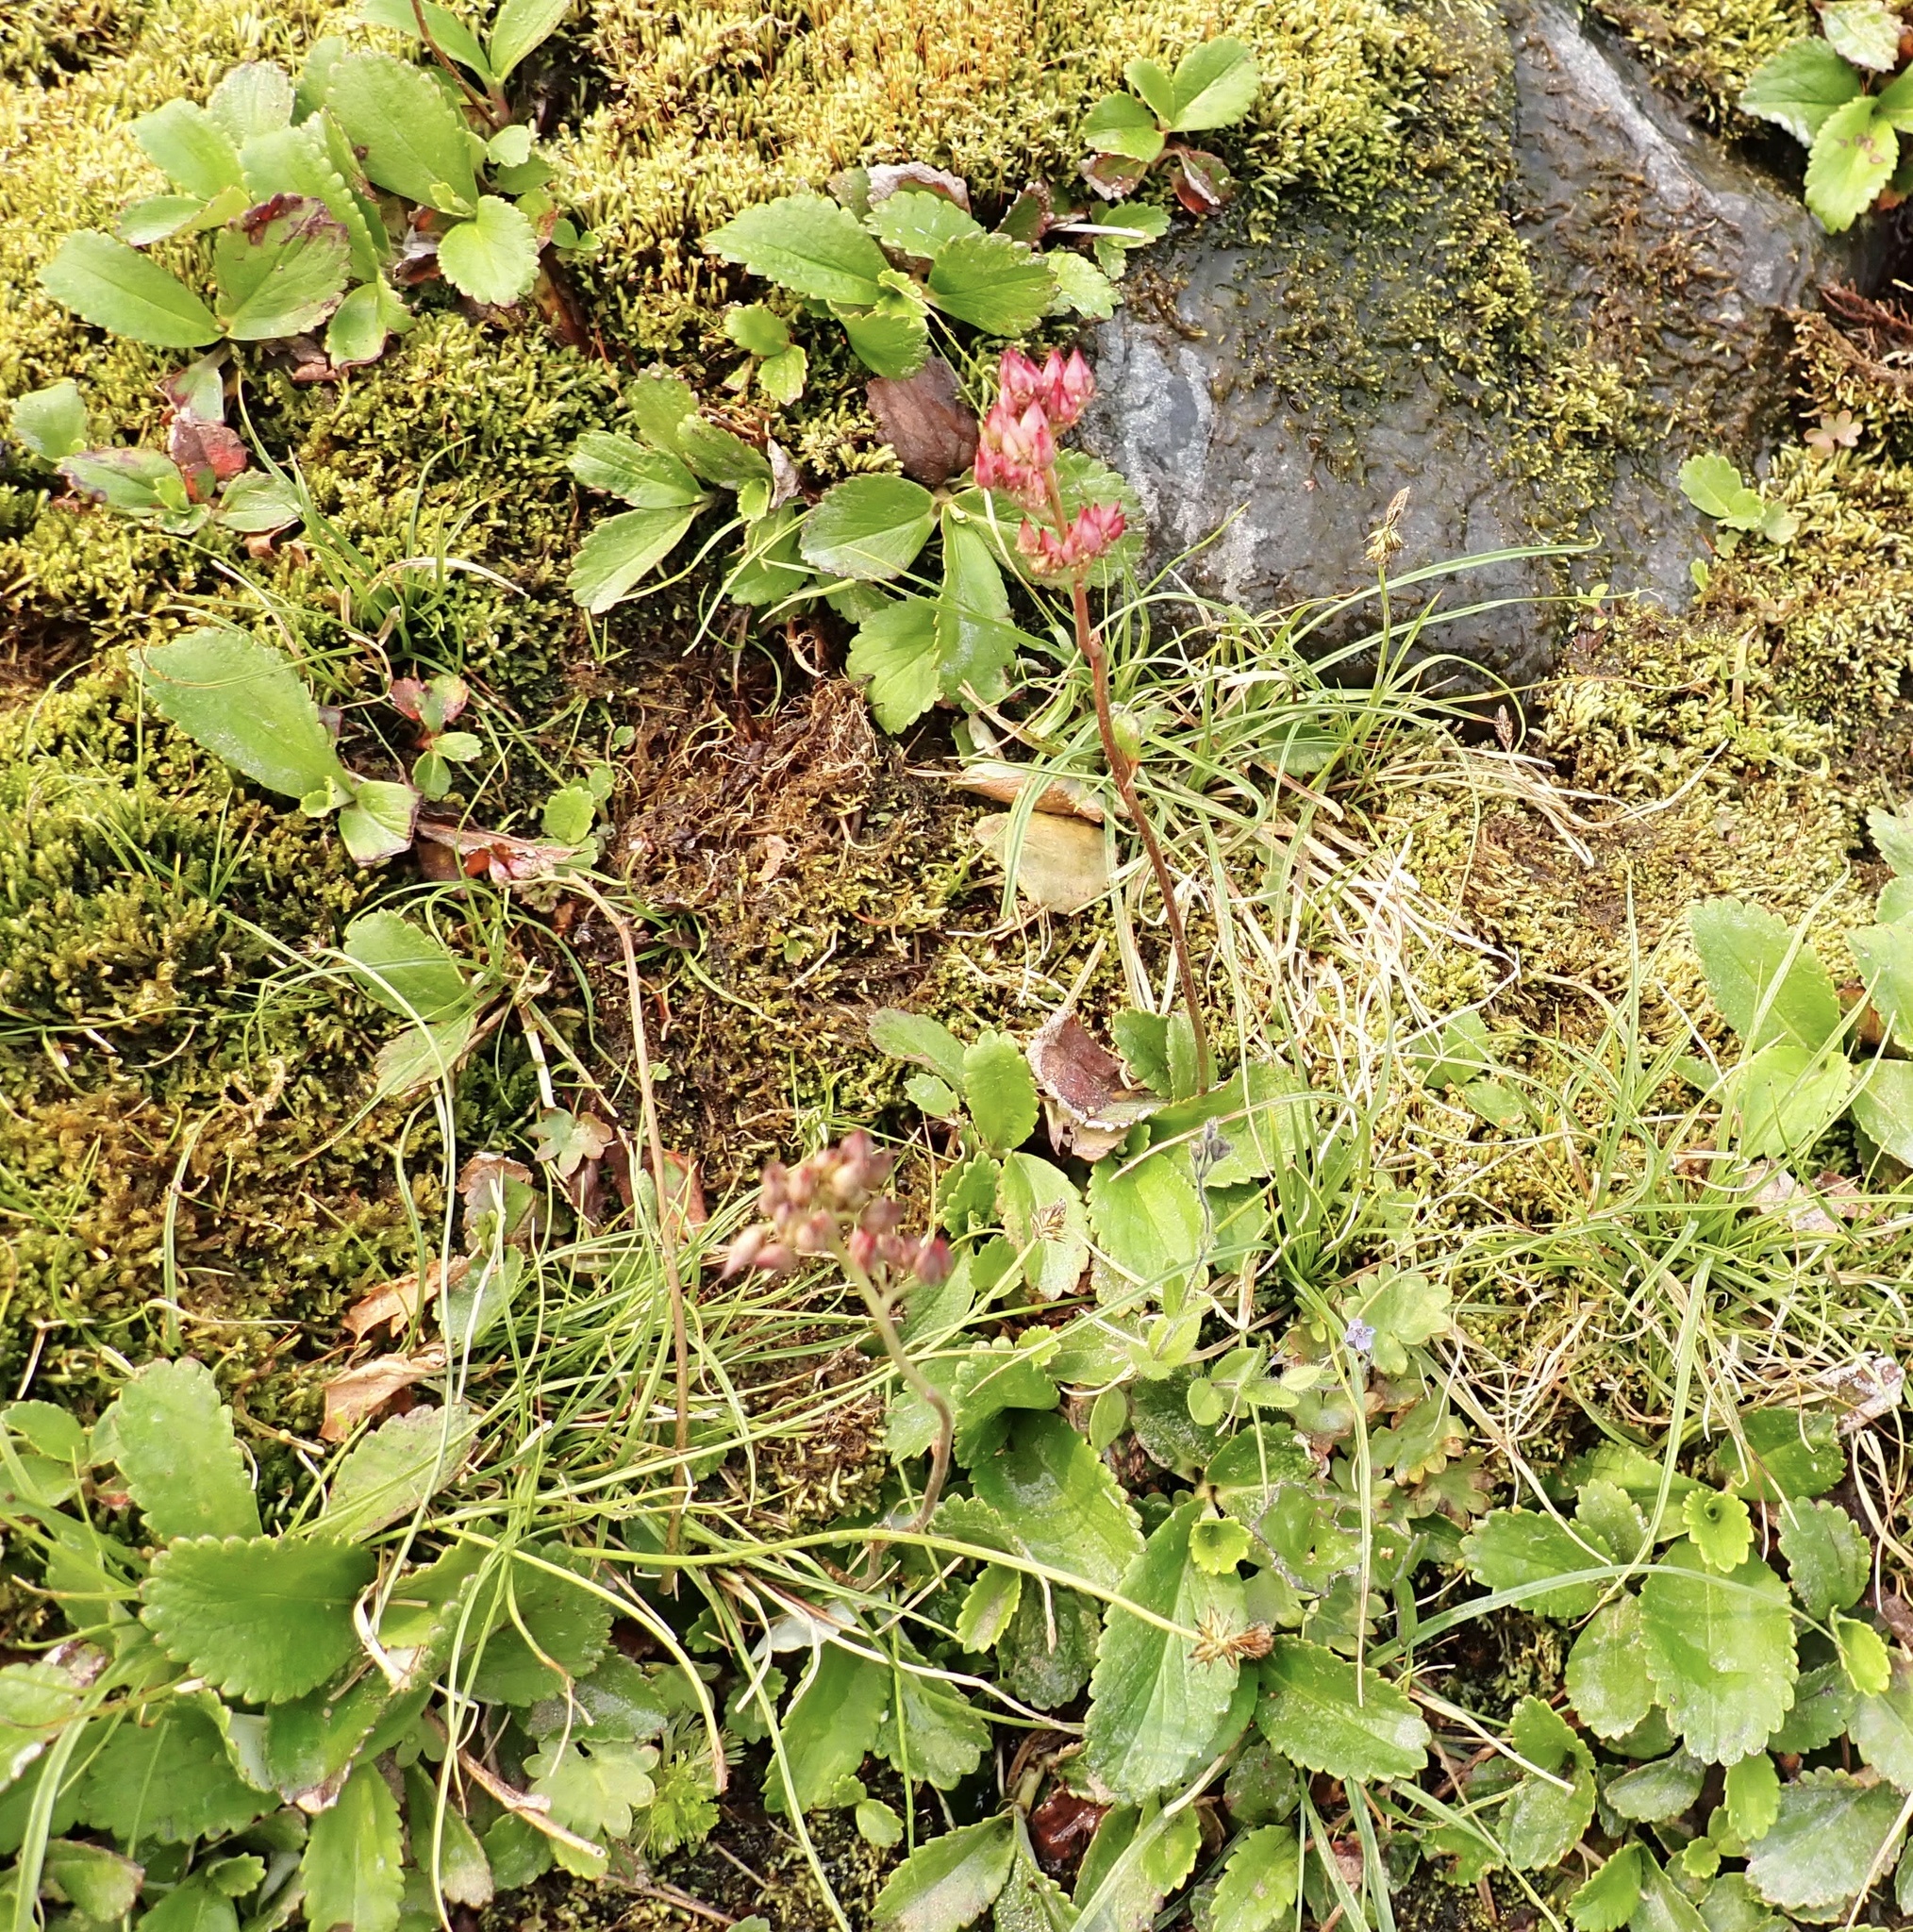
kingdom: Plantae
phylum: Tracheophyta
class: Magnoliopsida
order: Saxifragales
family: Saxifragaceae
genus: Leptarrhena
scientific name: Leptarrhena pyrolifolia
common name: Leatherleaf-saxifrage
